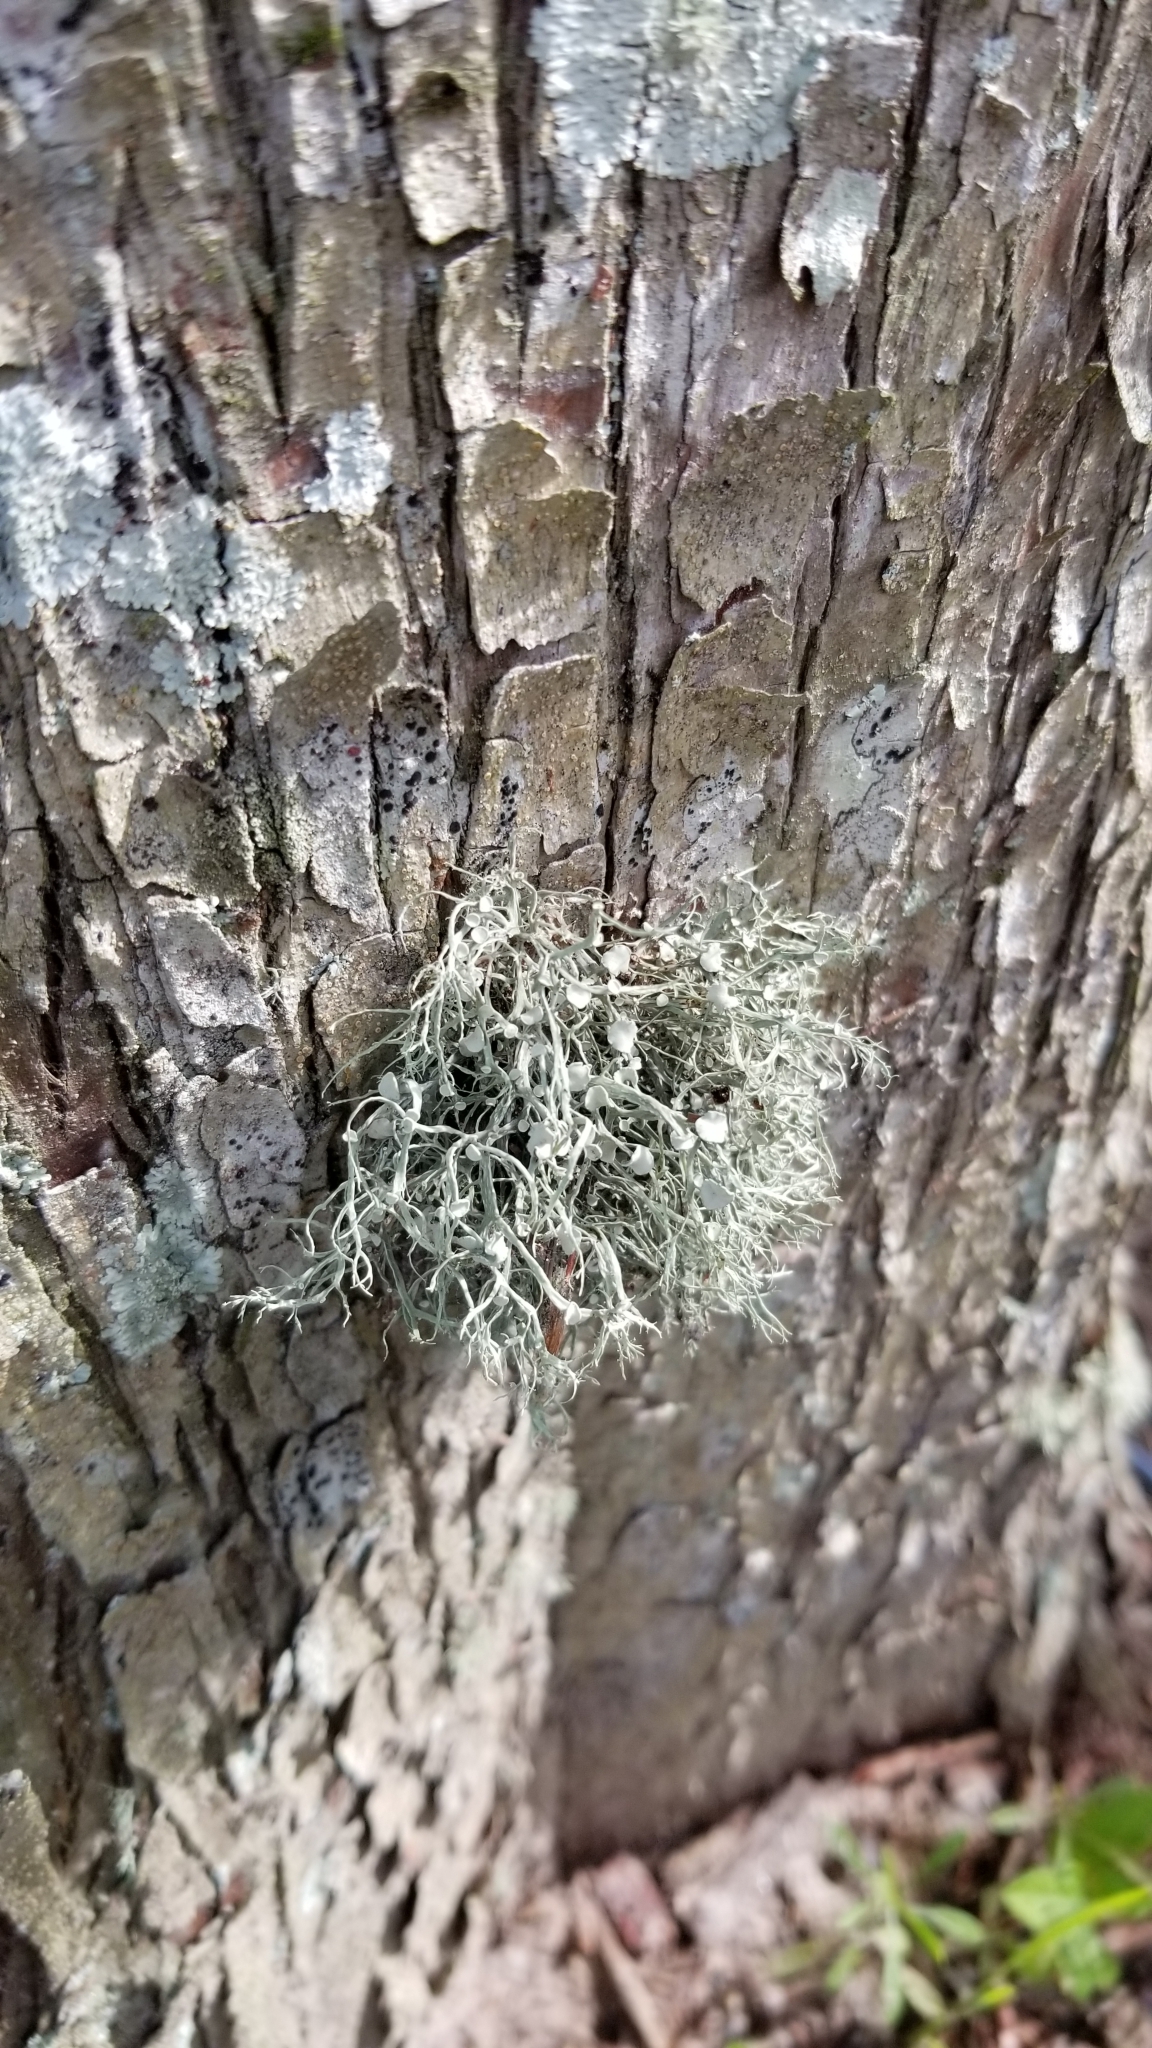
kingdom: Fungi
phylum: Ascomycota
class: Lecanoromycetes
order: Lecanorales
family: Parmeliaceae
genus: Usnea
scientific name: Usnea strigosa
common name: Bushy beard lichen
